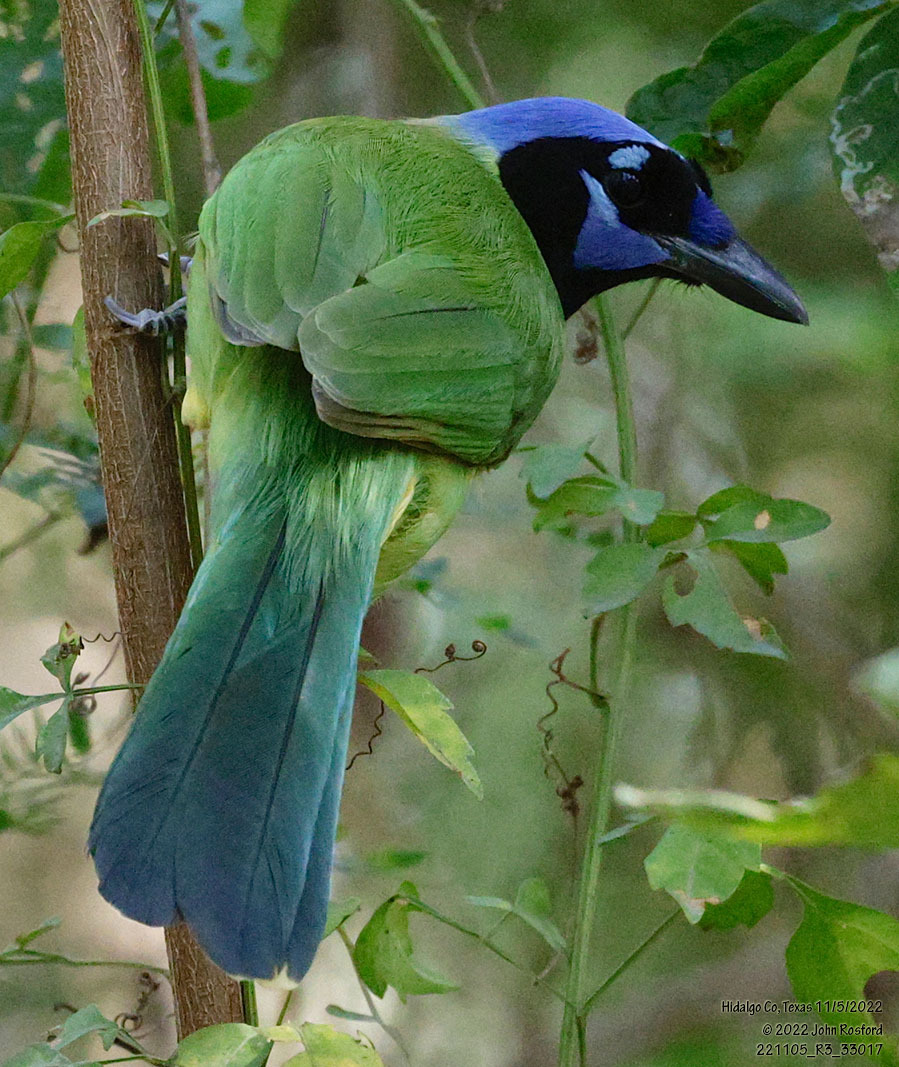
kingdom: Animalia
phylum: Chordata
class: Aves
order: Passeriformes
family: Corvidae
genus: Cyanocorax
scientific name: Cyanocorax yncas
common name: Green jay
